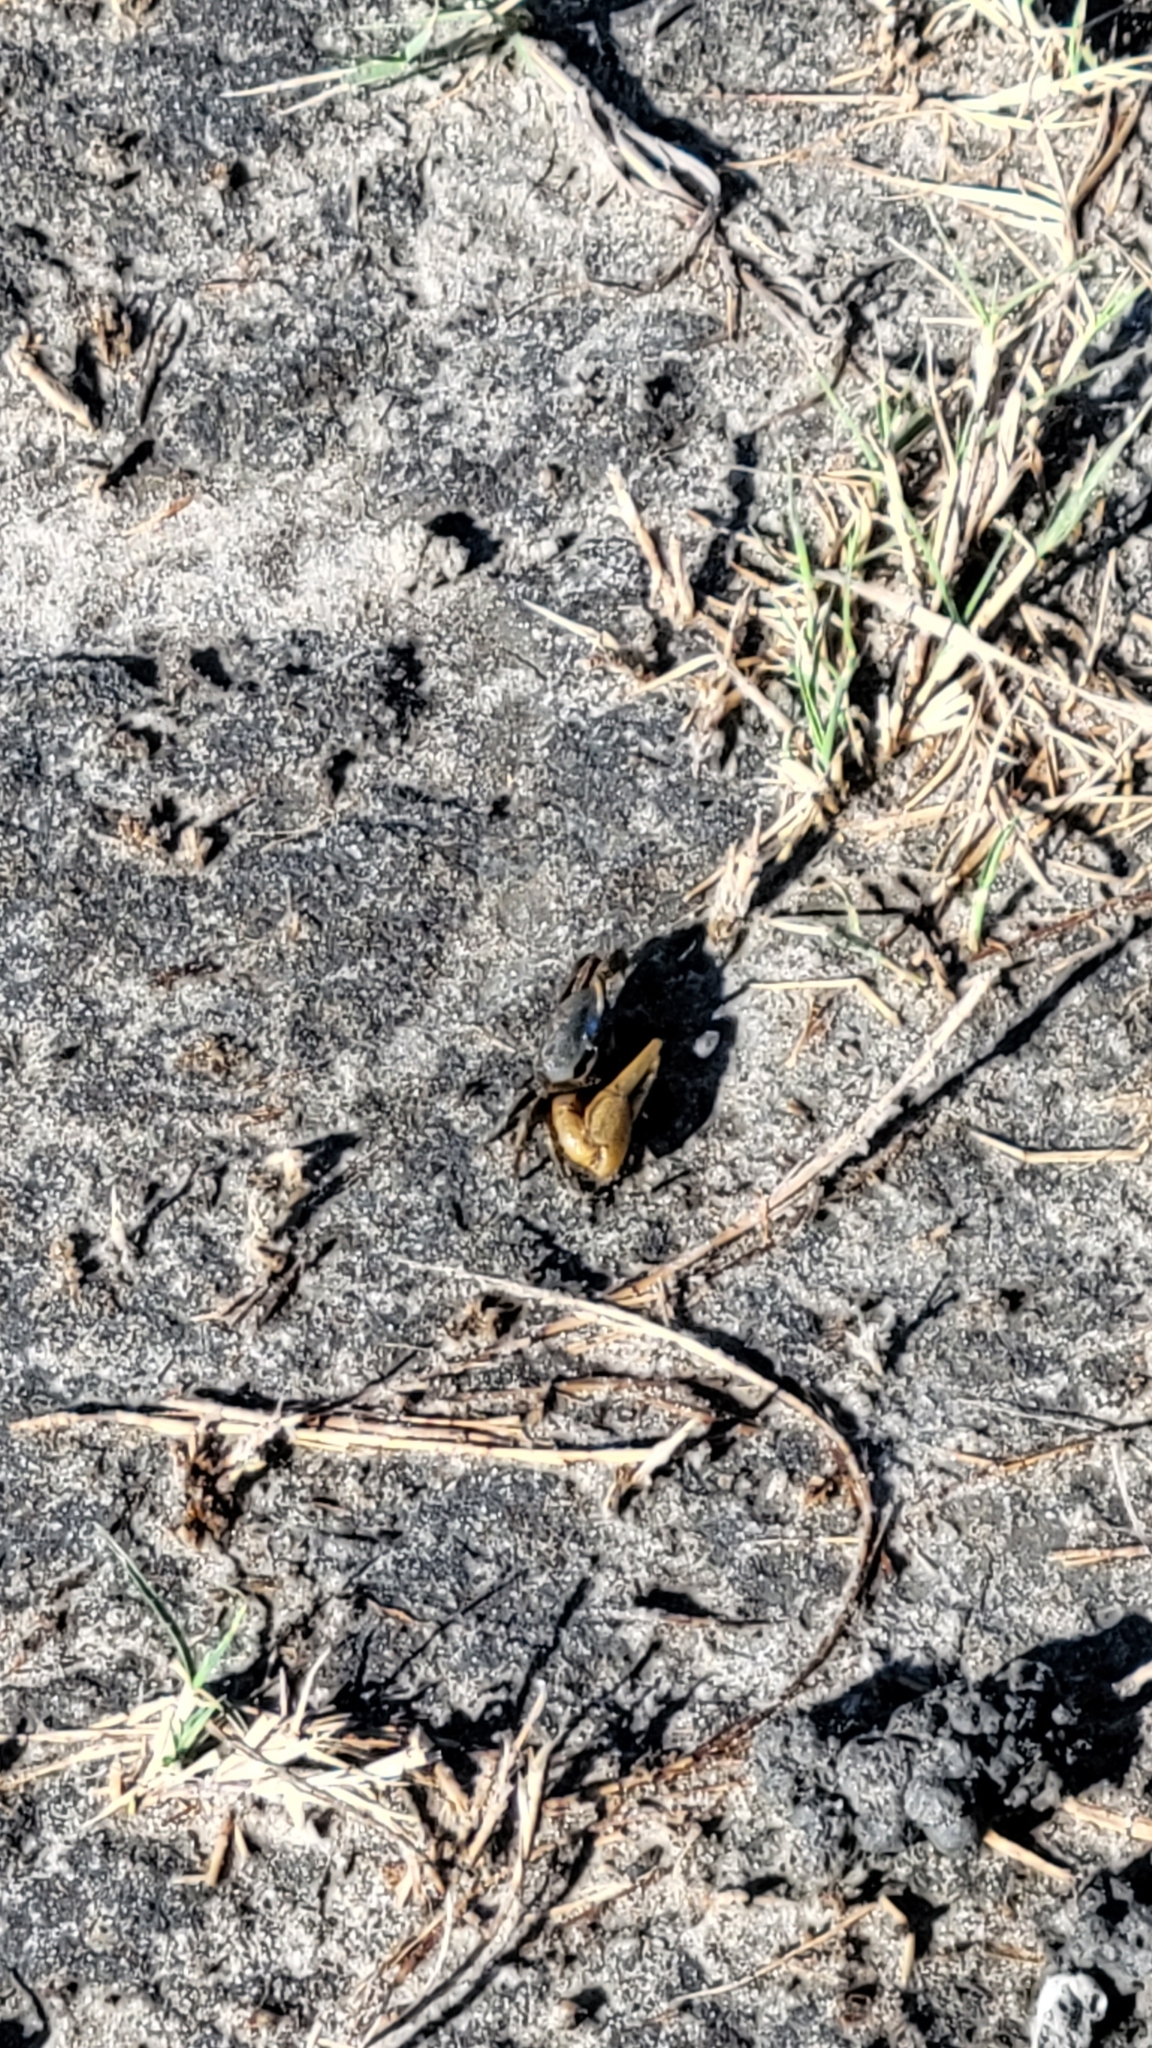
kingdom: Animalia
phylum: Arthropoda
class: Malacostraca
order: Decapoda
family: Ocypodidae
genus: Minuca
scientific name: Minuca pugnax
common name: Mud fiddler crab
